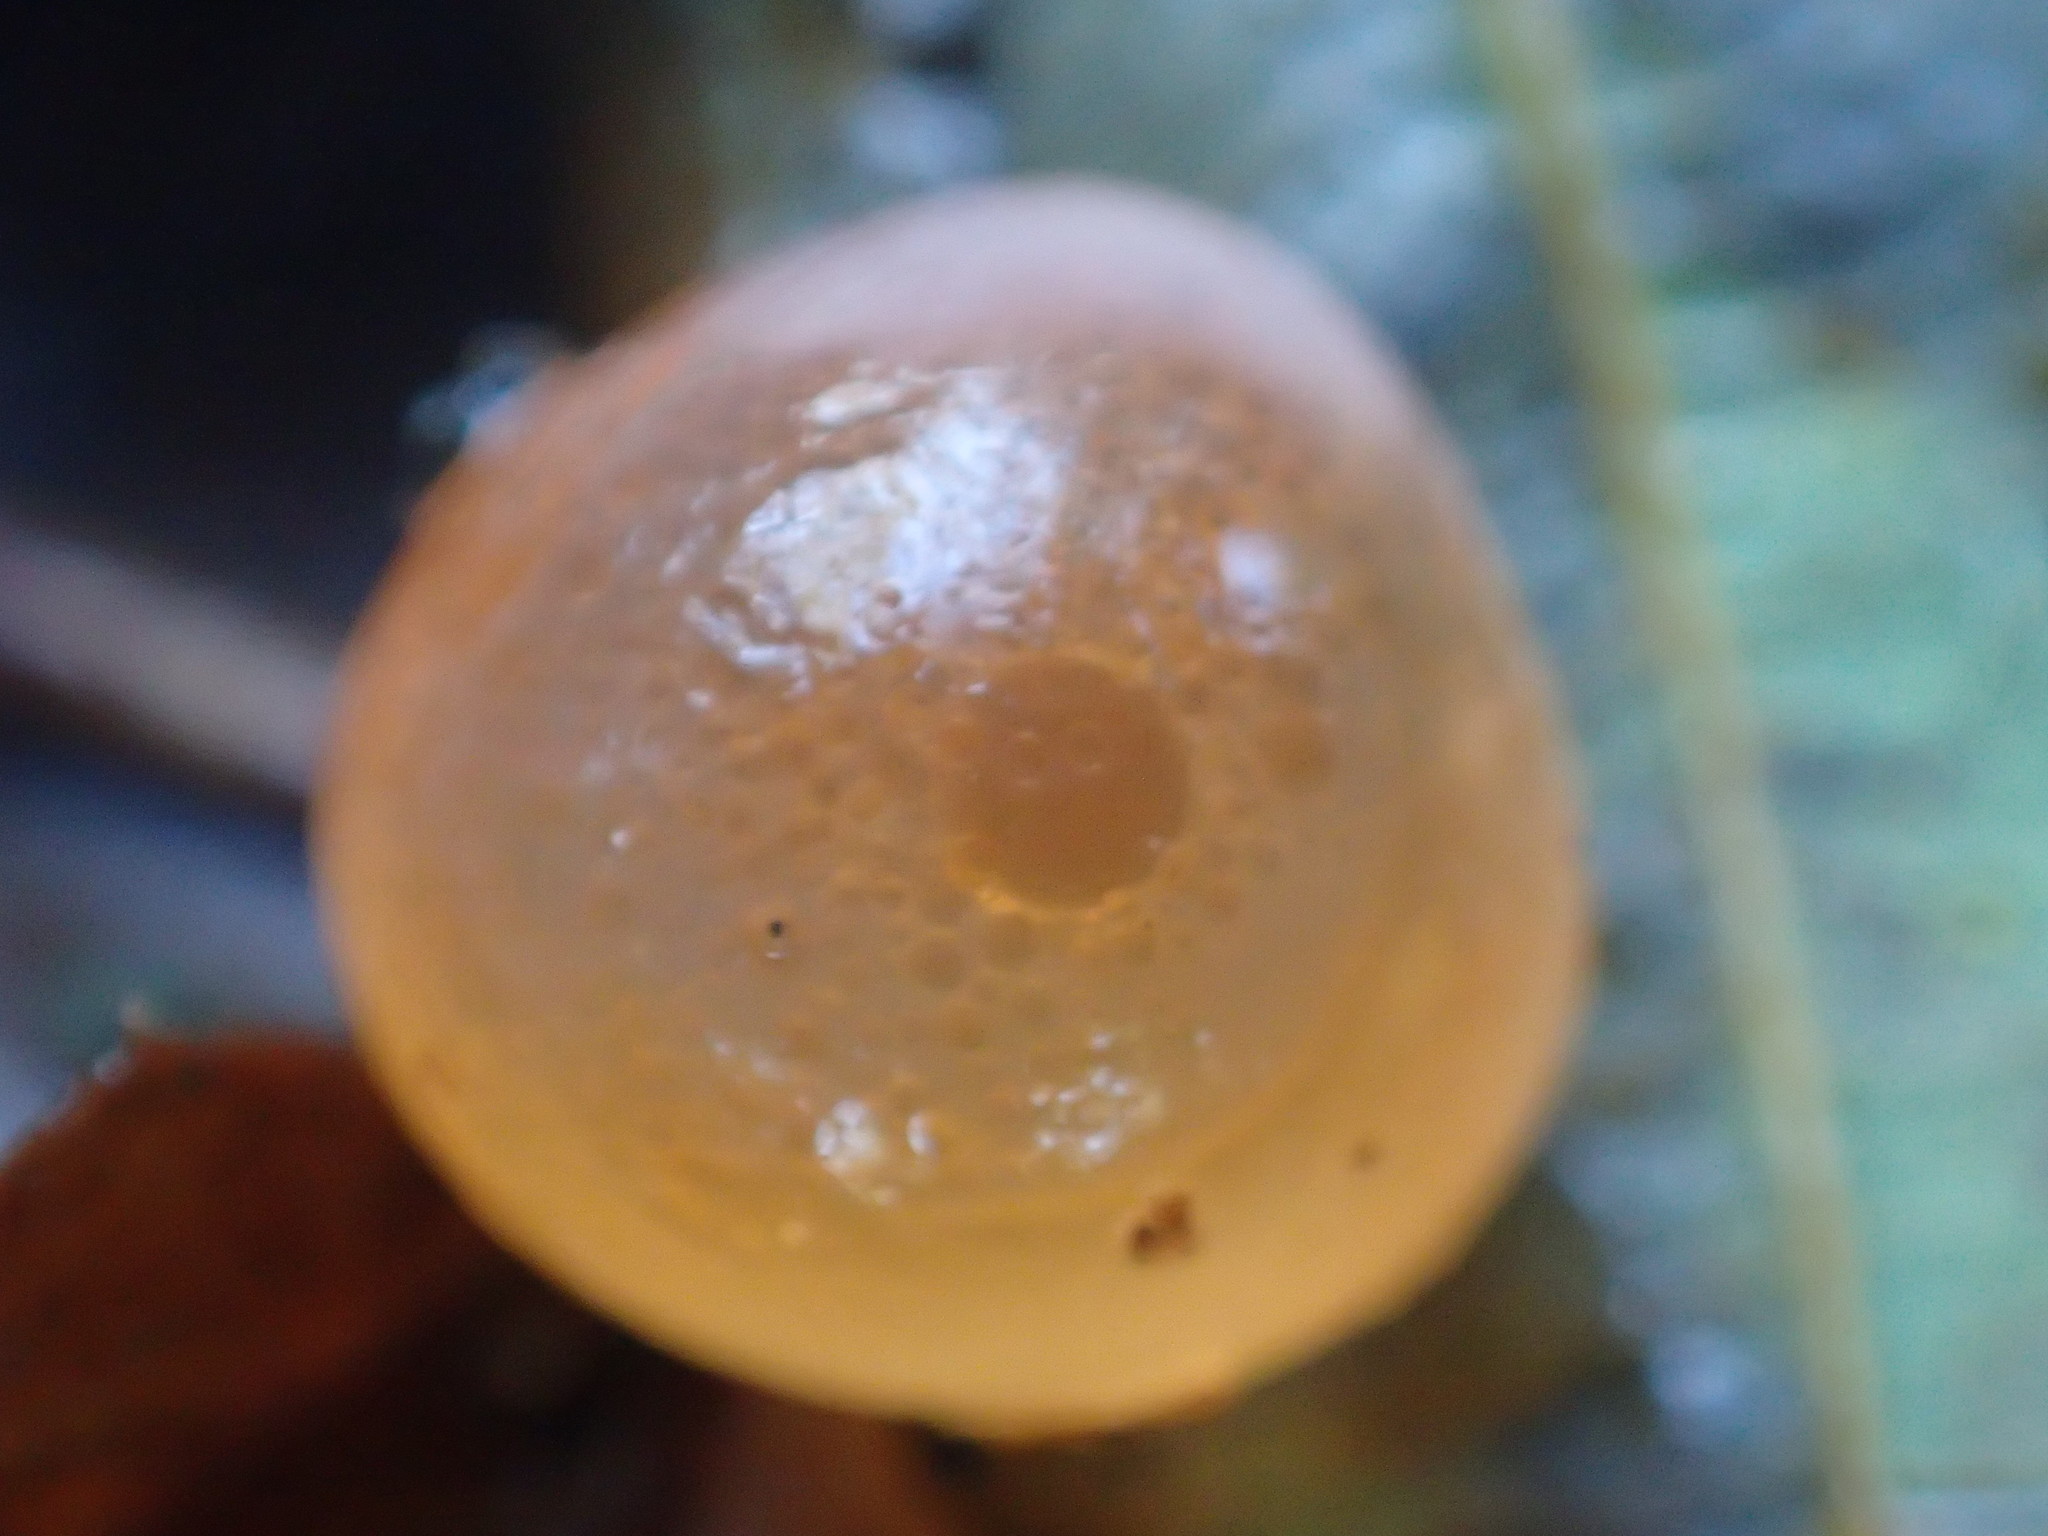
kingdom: Animalia
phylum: Chordata
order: Salmoniformes
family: Salmonidae
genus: Oncorhynchus
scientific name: Oncorhynchus keta
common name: Chum salmon
